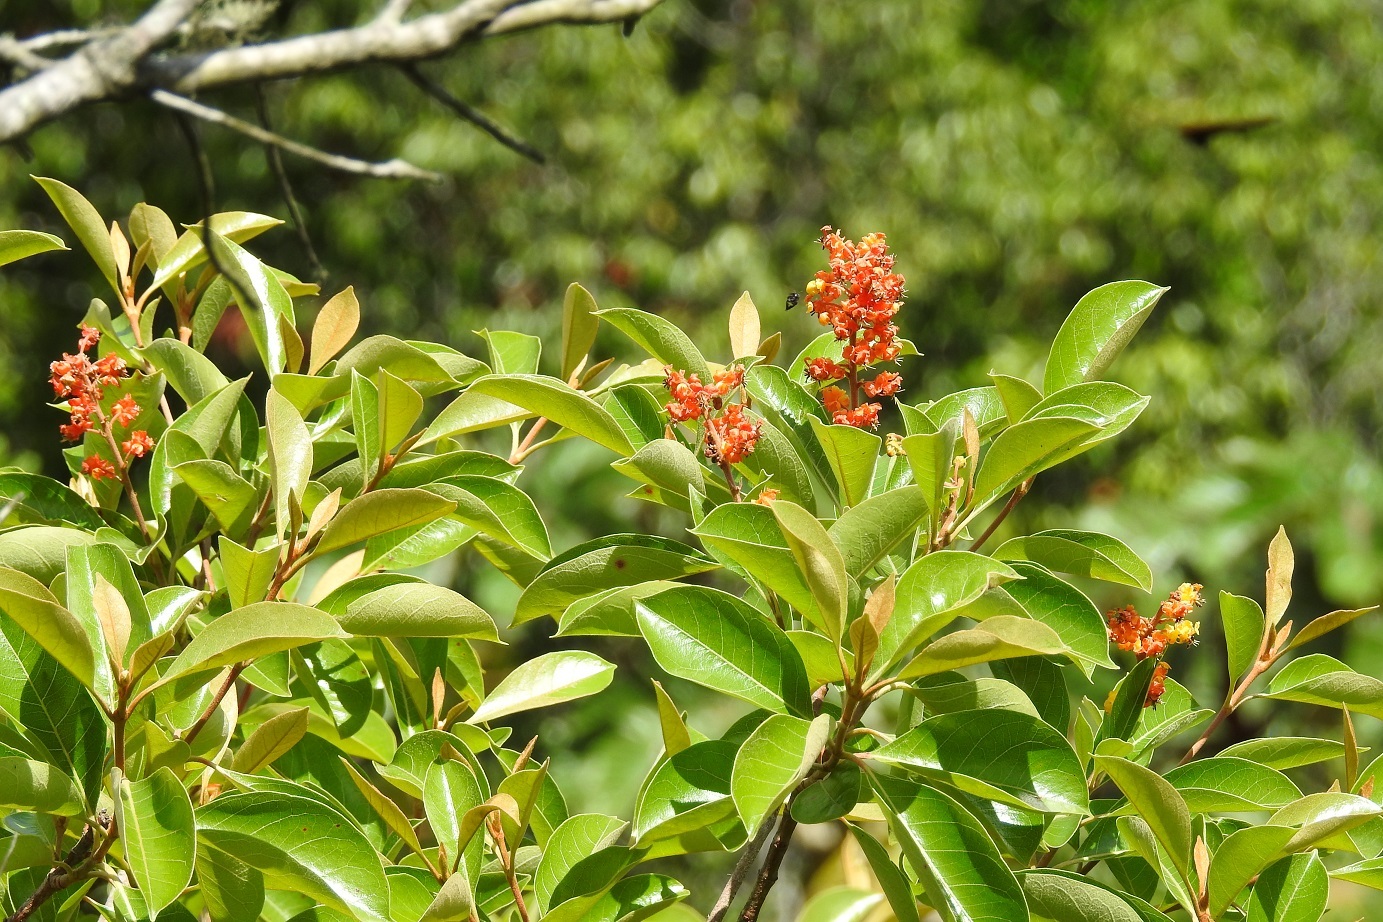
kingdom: Plantae
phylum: Tracheophyta
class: Magnoliopsida
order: Malpighiales
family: Malpighiaceae
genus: Byrsonima
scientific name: Byrsonima crassifolia
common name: Golden spoon
